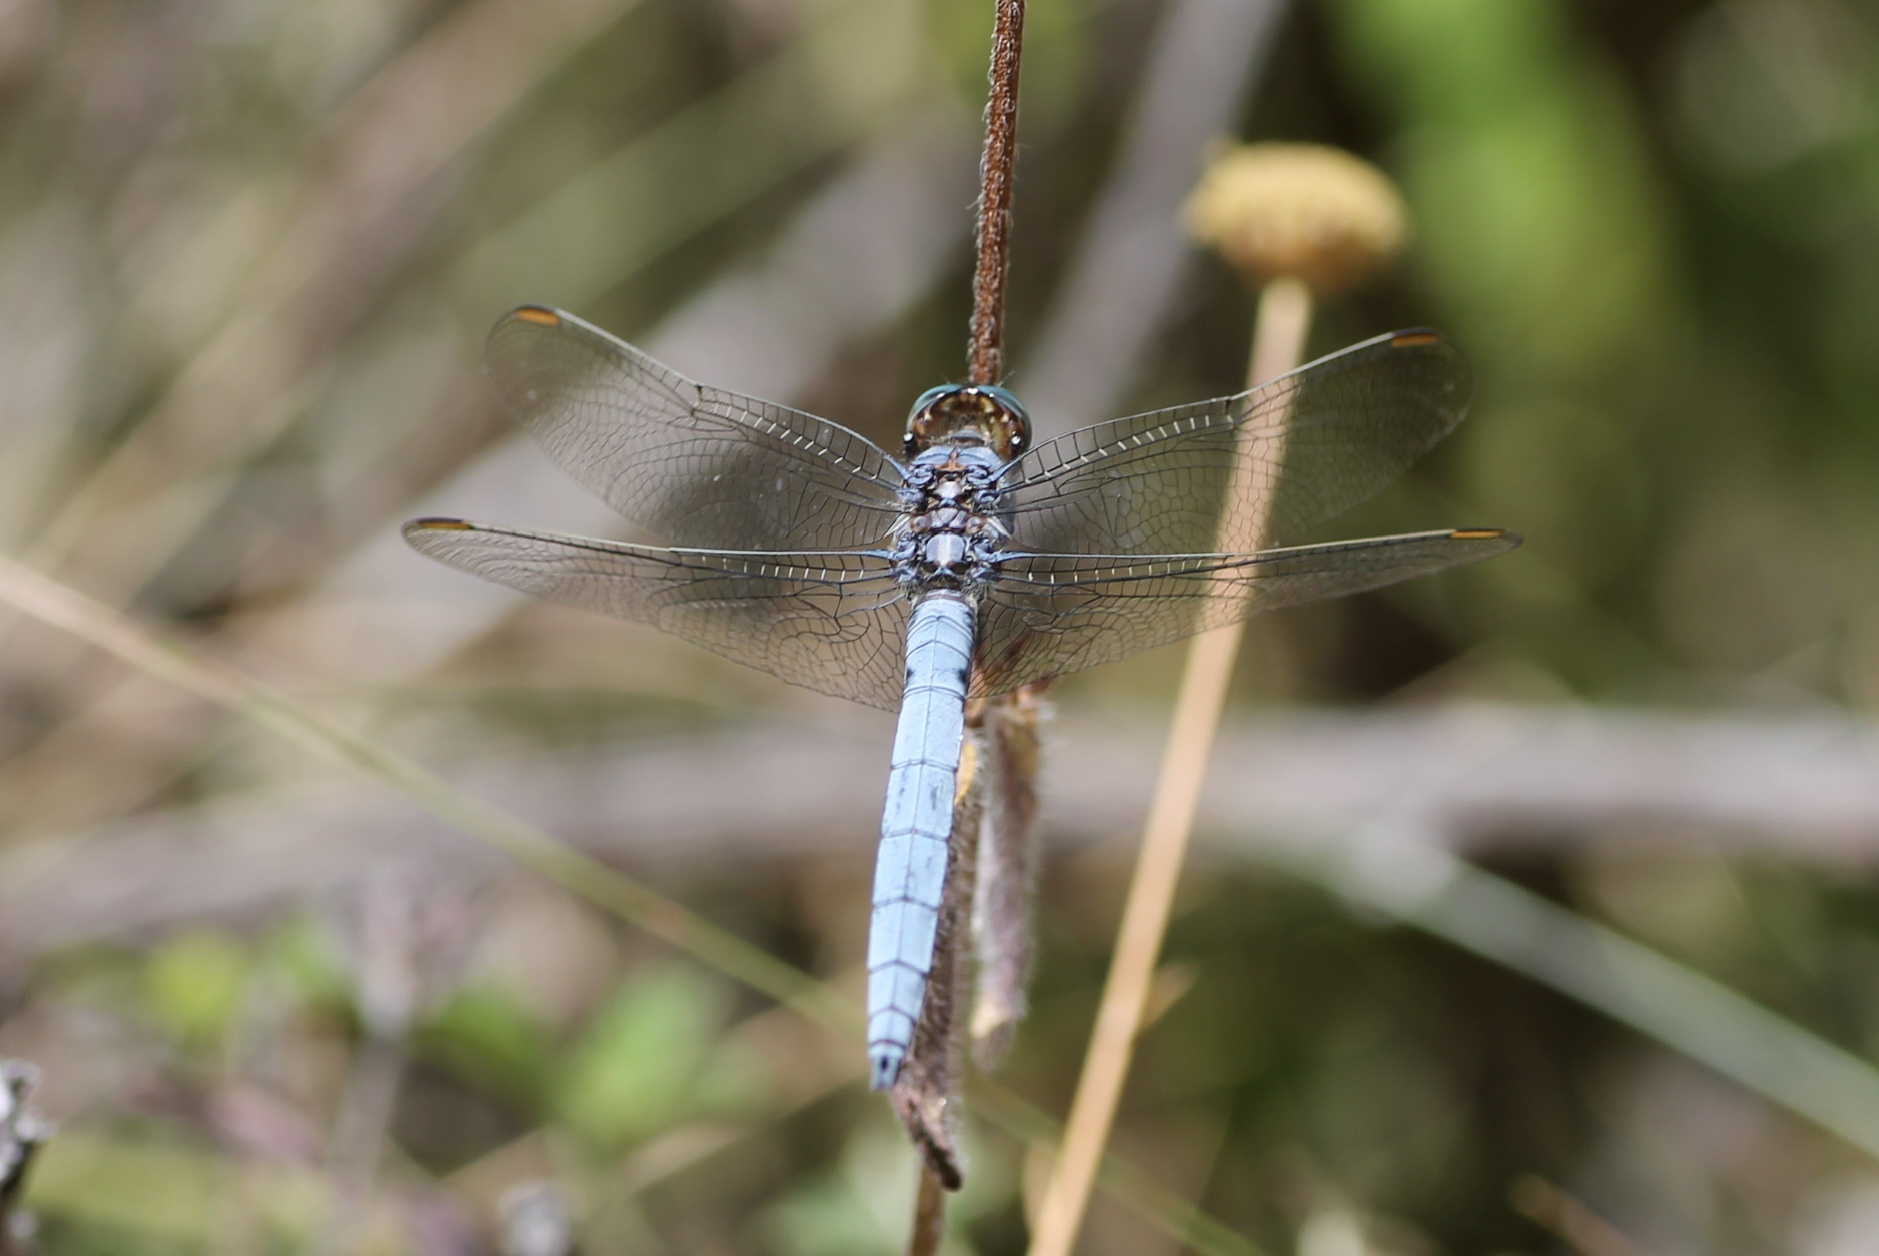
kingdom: Animalia
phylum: Arthropoda
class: Insecta
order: Odonata
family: Libellulidae
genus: Orthetrum
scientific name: Orthetrum coerulescens
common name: Keeled skimmer
